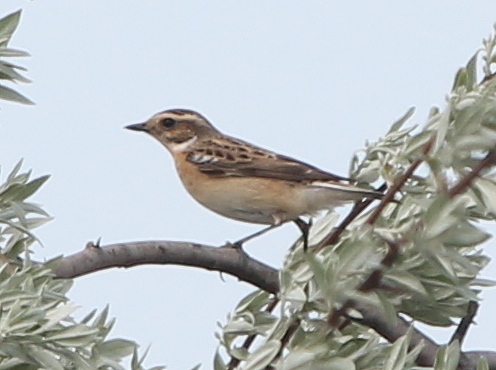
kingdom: Animalia
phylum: Chordata
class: Aves
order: Passeriformes
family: Muscicapidae
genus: Saxicola
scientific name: Saxicola rubetra
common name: Whinchat
